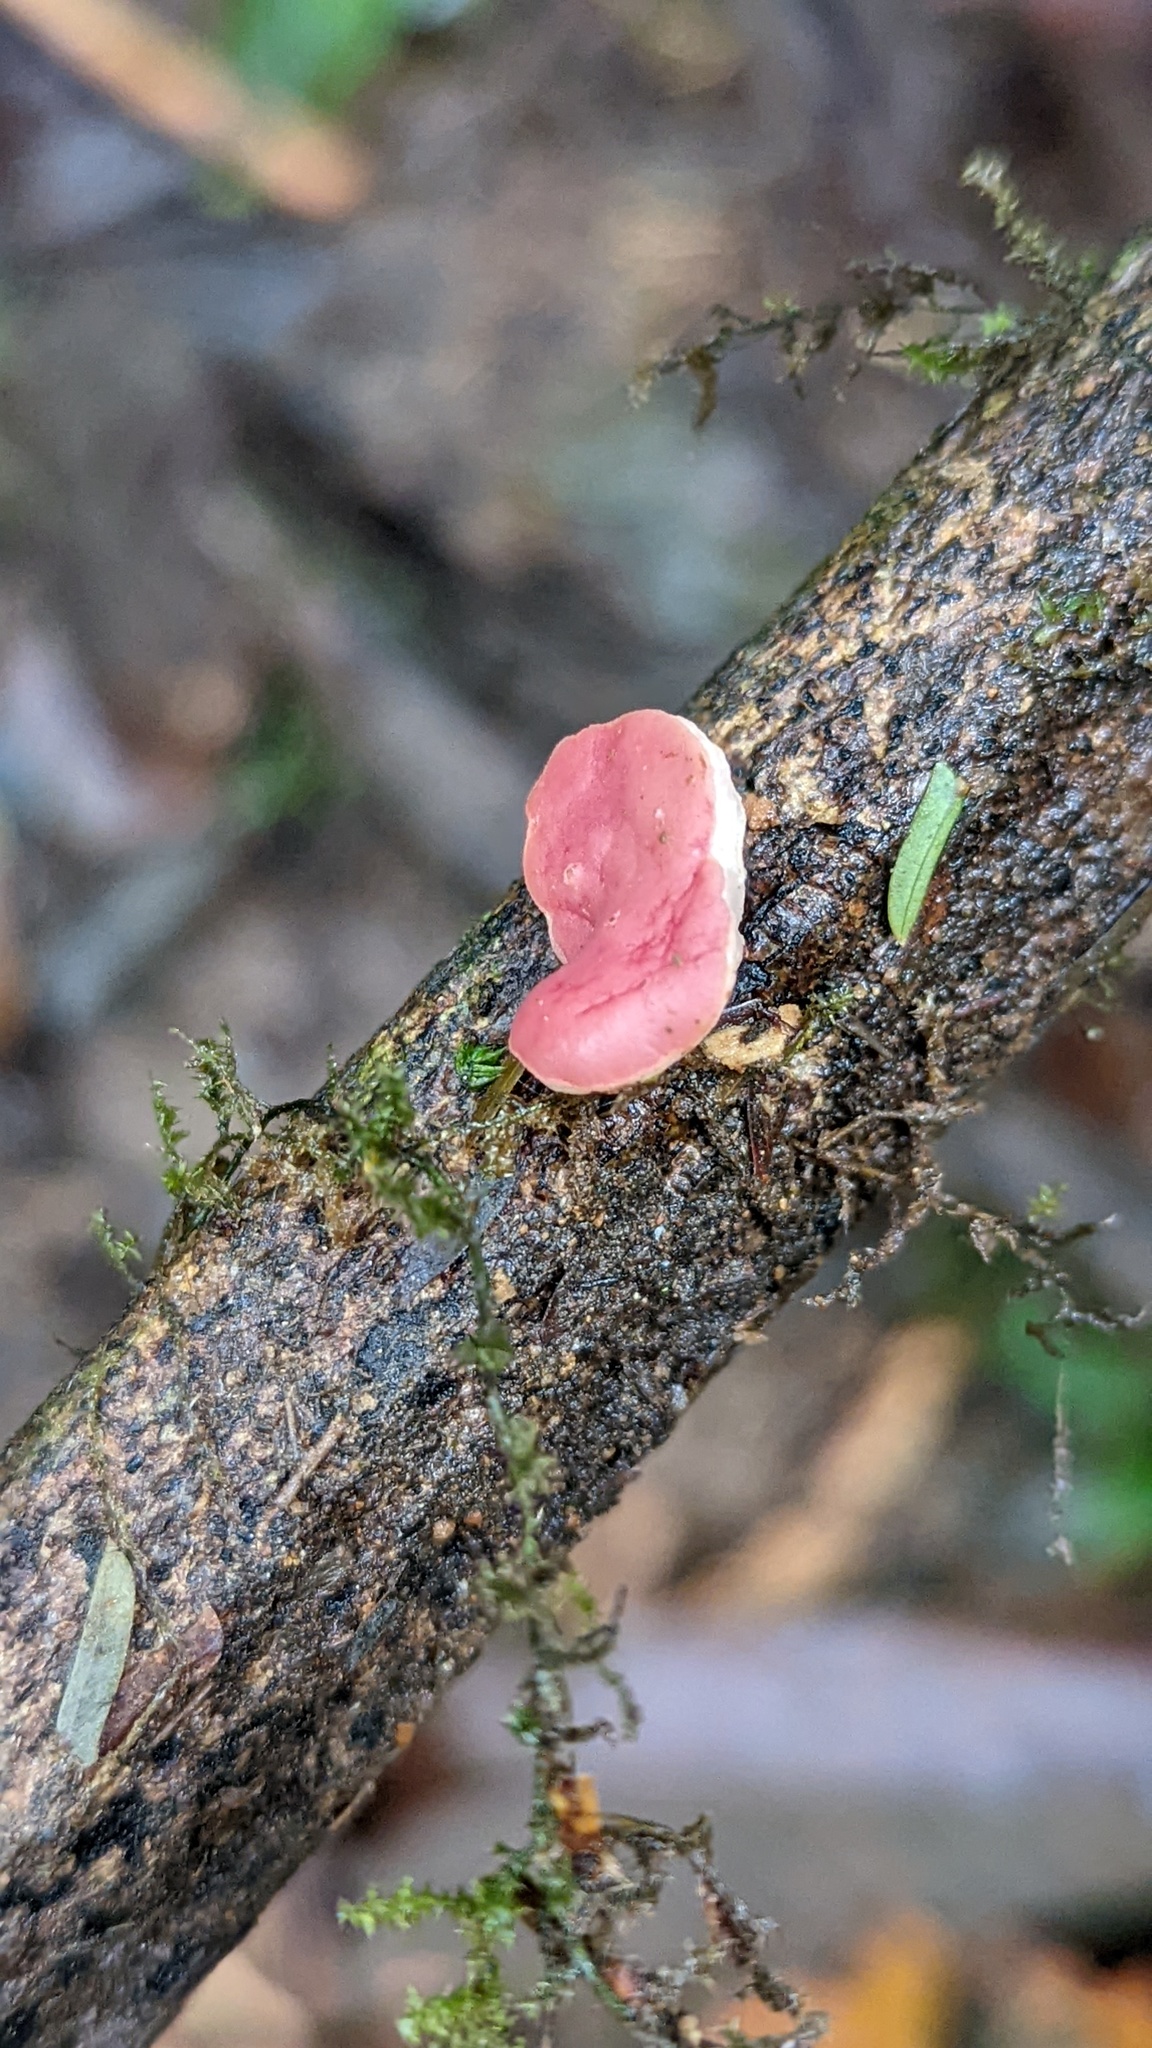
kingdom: Fungi
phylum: Ascomycota
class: Pezizomycetes
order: Pezizales
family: Sarcoscyphaceae
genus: Phillipsia
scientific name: Phillipsia domingensis
